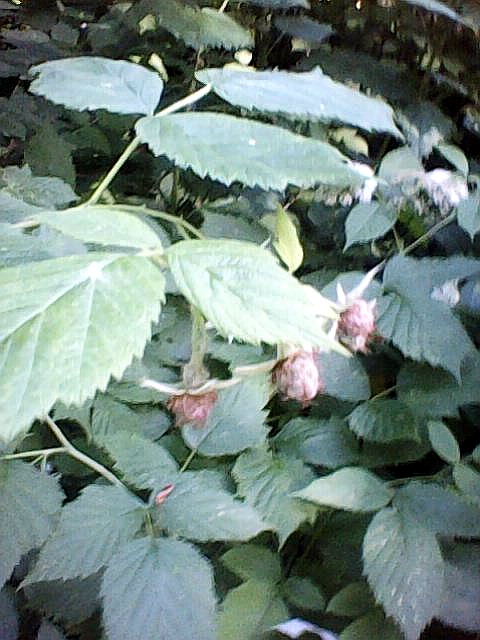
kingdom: Plantae
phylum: Tracheophyta
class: Magnoliopsida
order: Rosales
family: Rosaceae
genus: Rubus
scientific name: Rubus idaeus
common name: Raspberry
